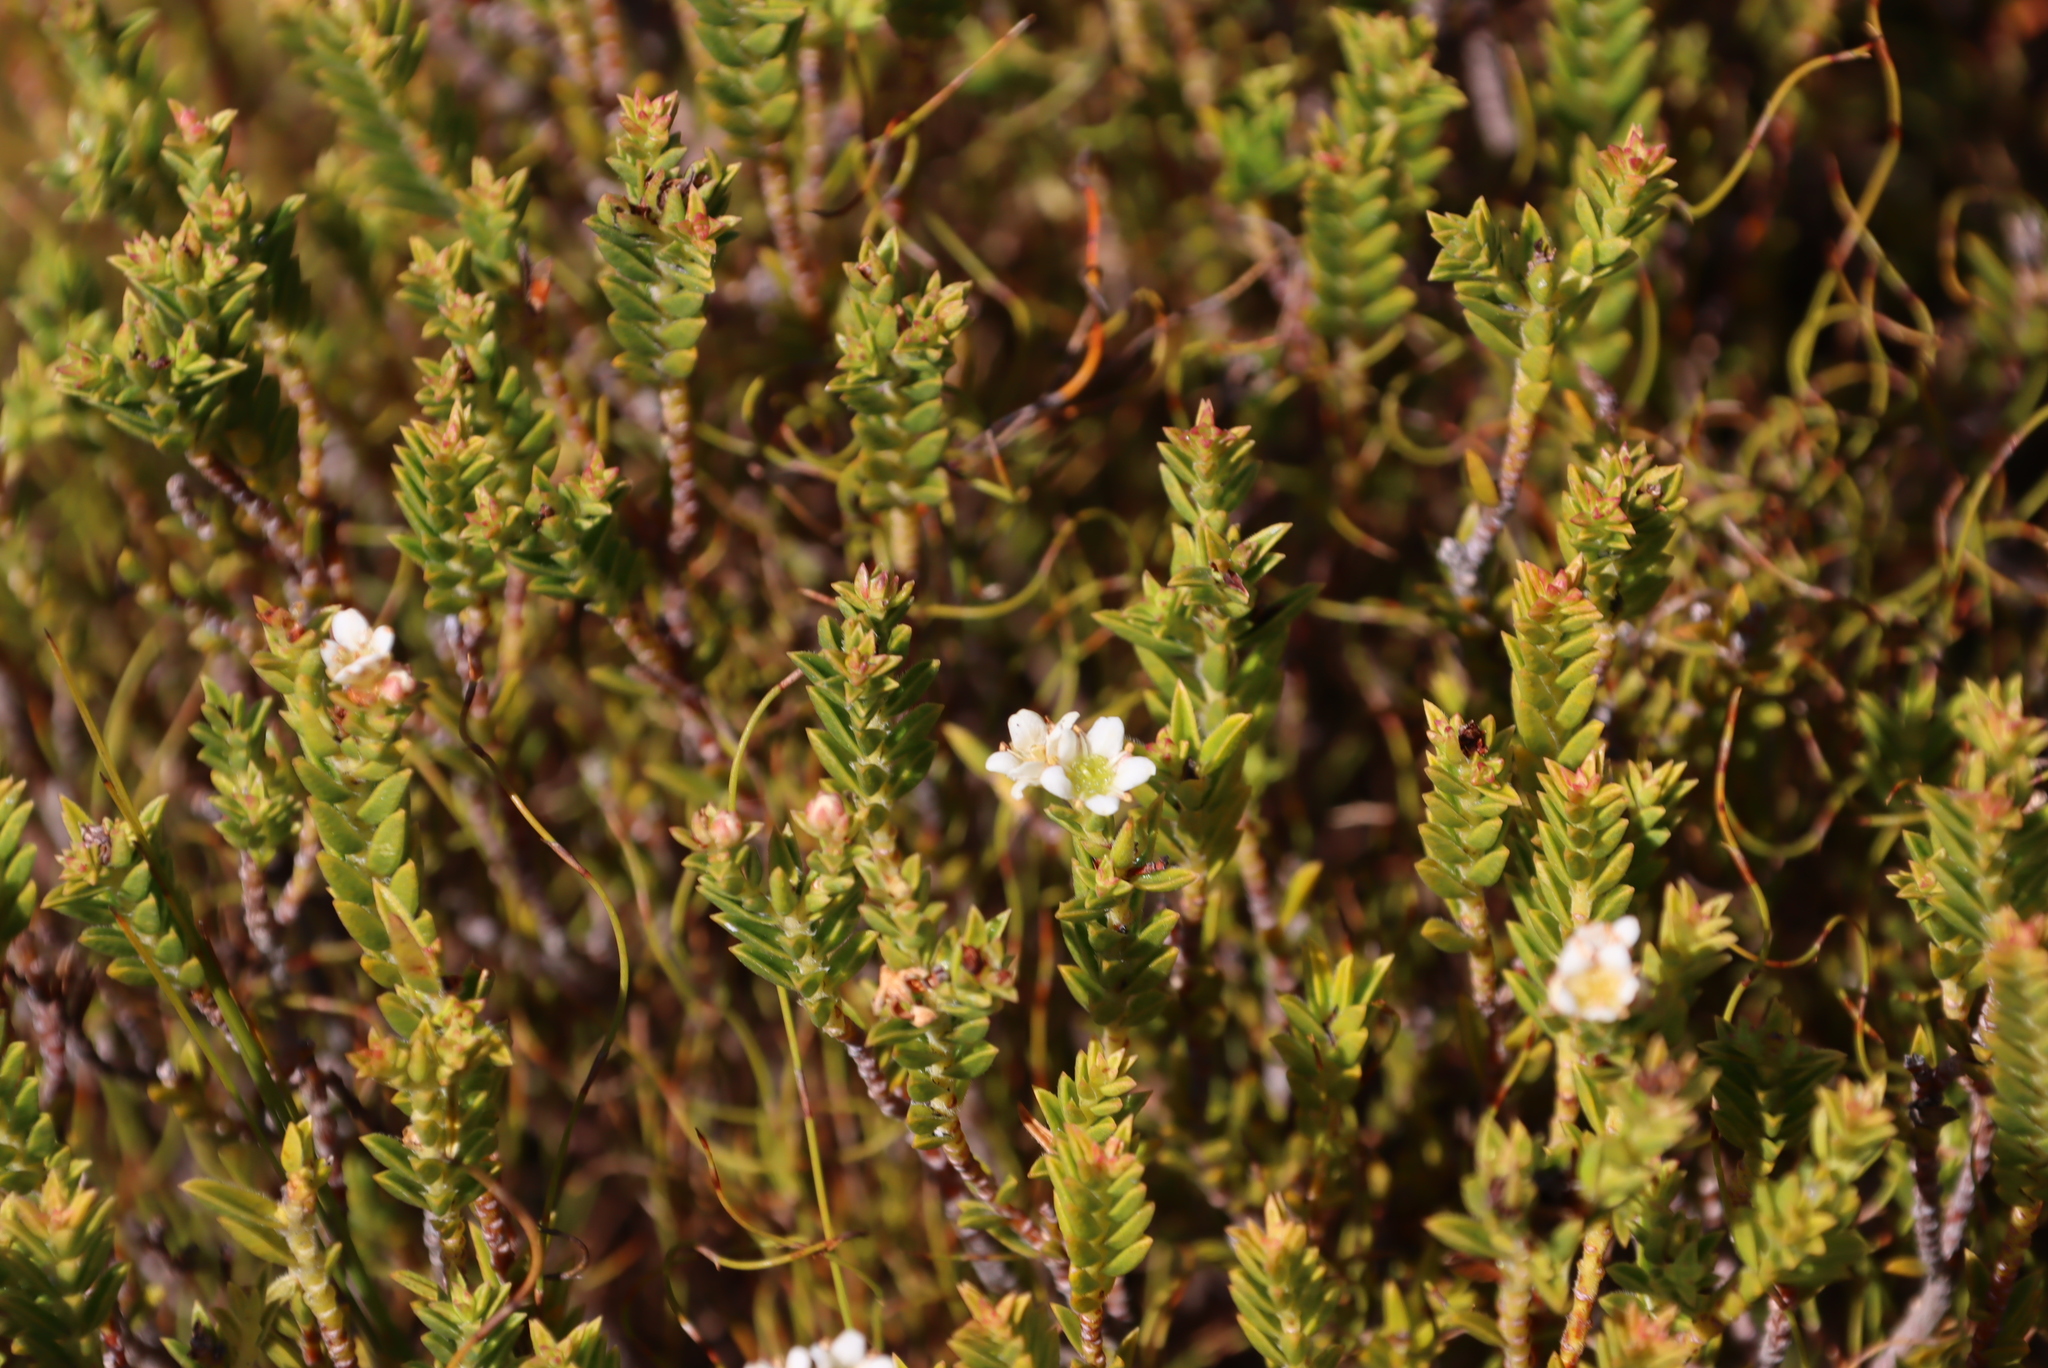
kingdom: Plantae
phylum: Tracheophyta
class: Magnoliopsida
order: Sapindales
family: Rutaceae
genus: Diosma
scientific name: Diosma oppositifolia
